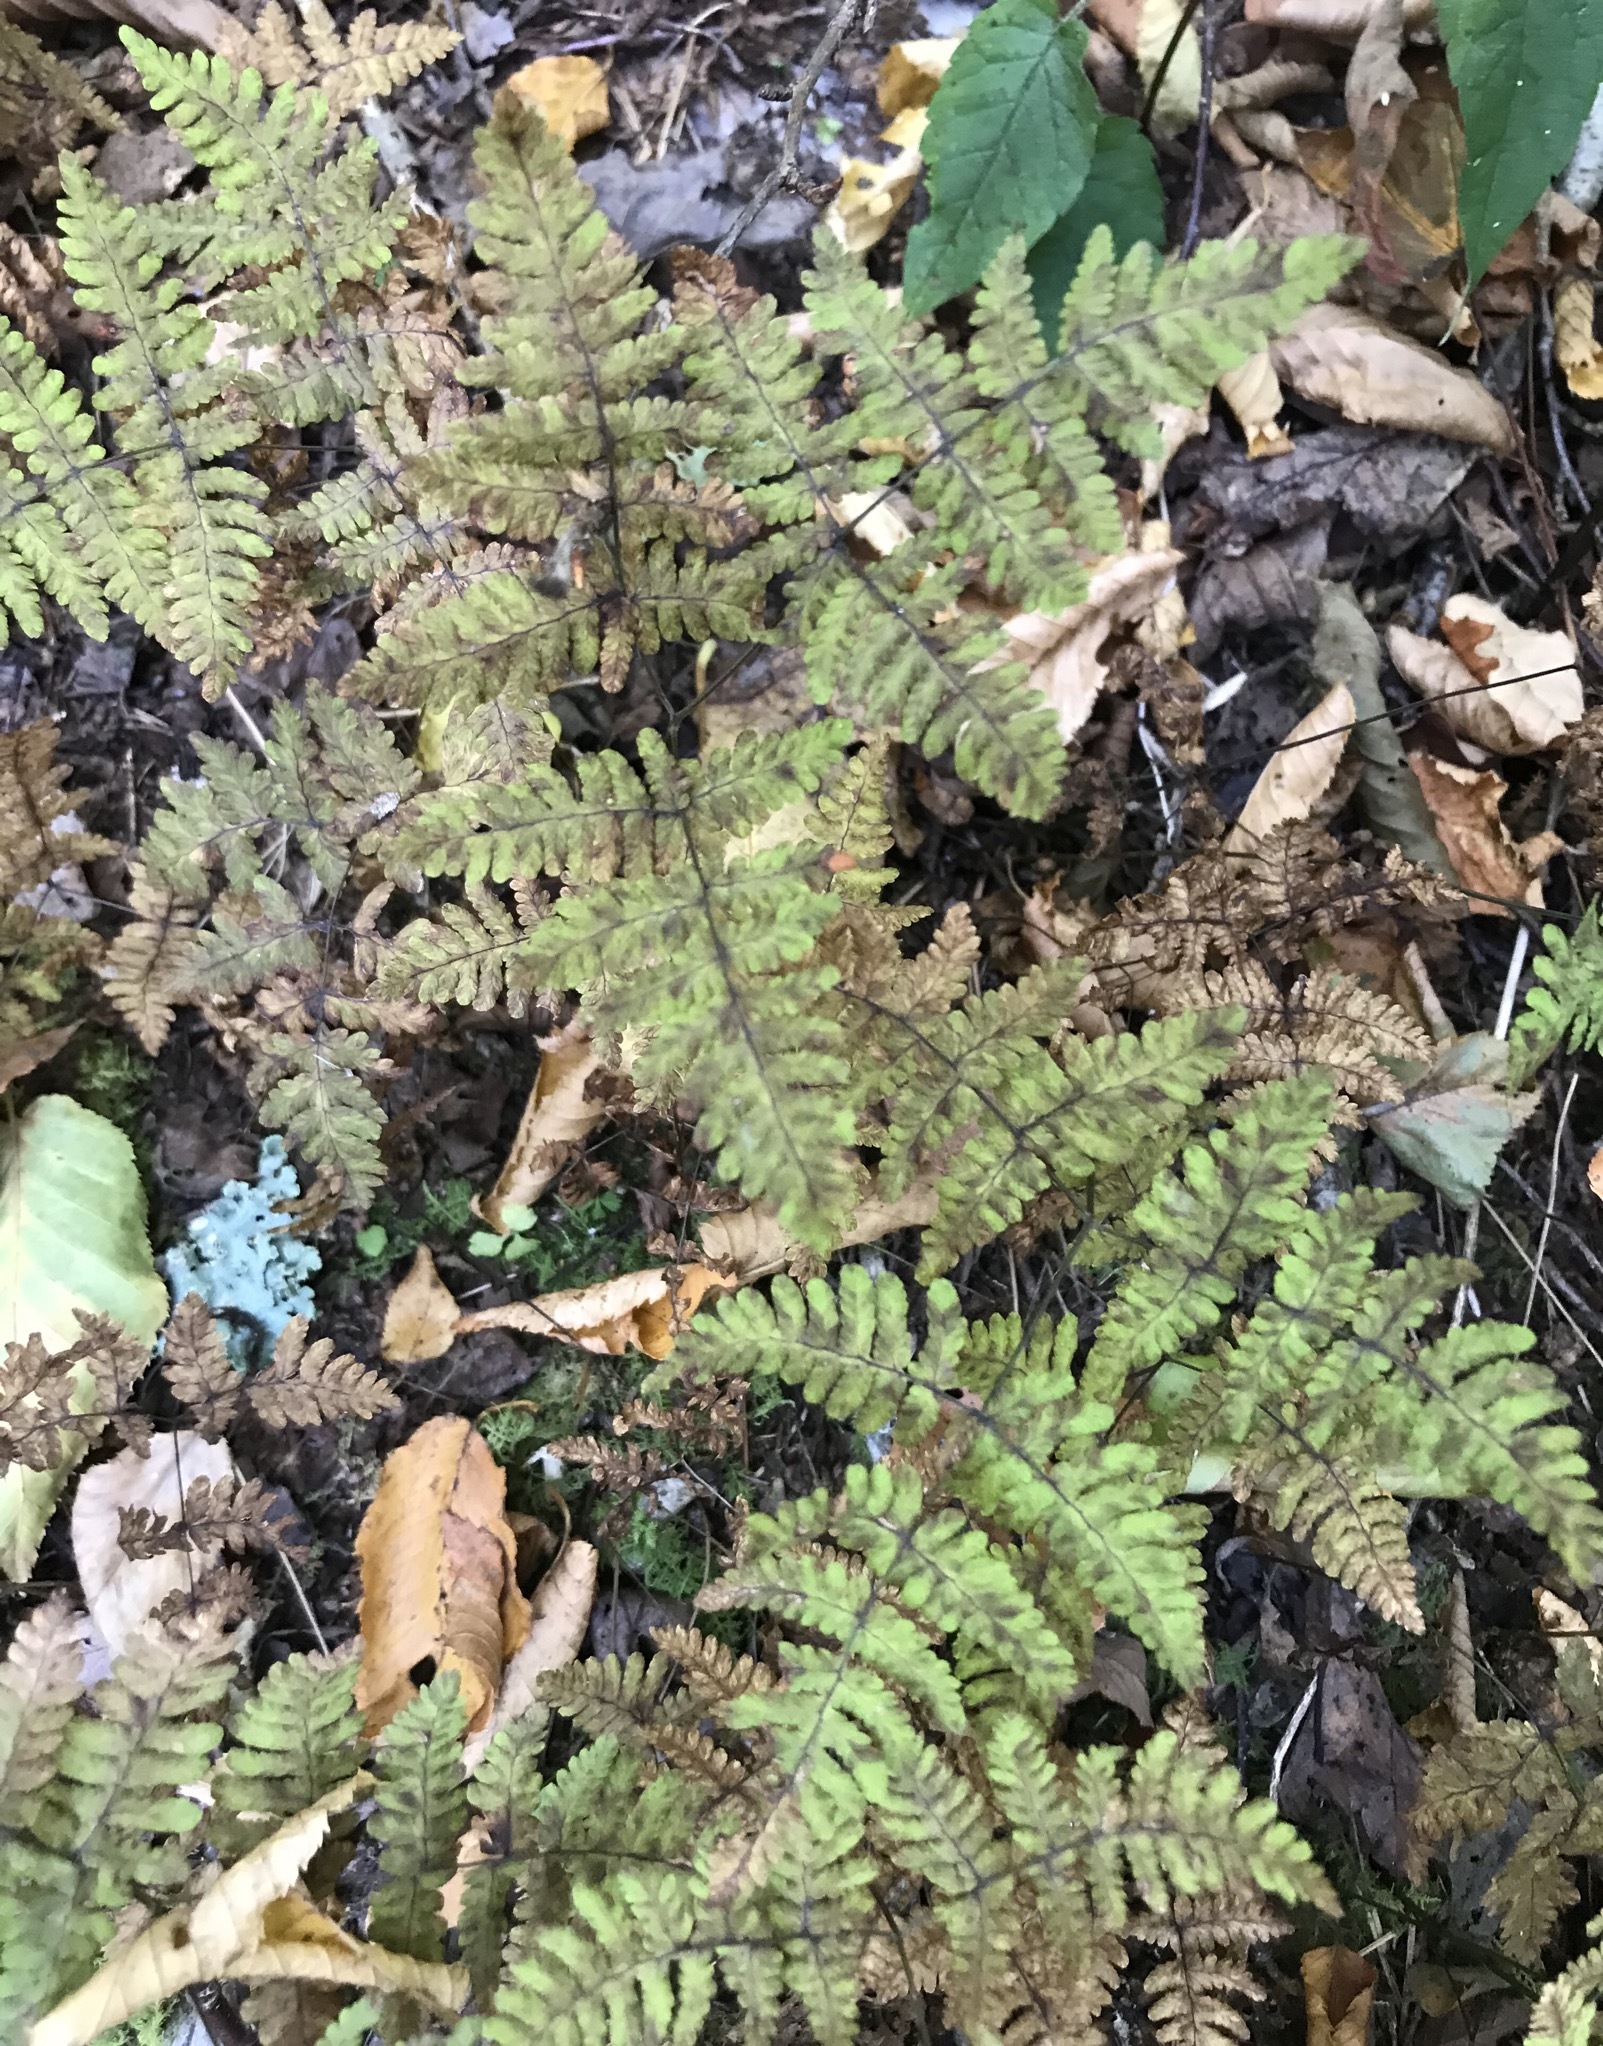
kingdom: Plantae
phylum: Tracheophyta
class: Polypodiopsida
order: Polypodiales
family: Cystopteridaceae
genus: Gymnocarpium
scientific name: Gymnocarpium appalachianum
